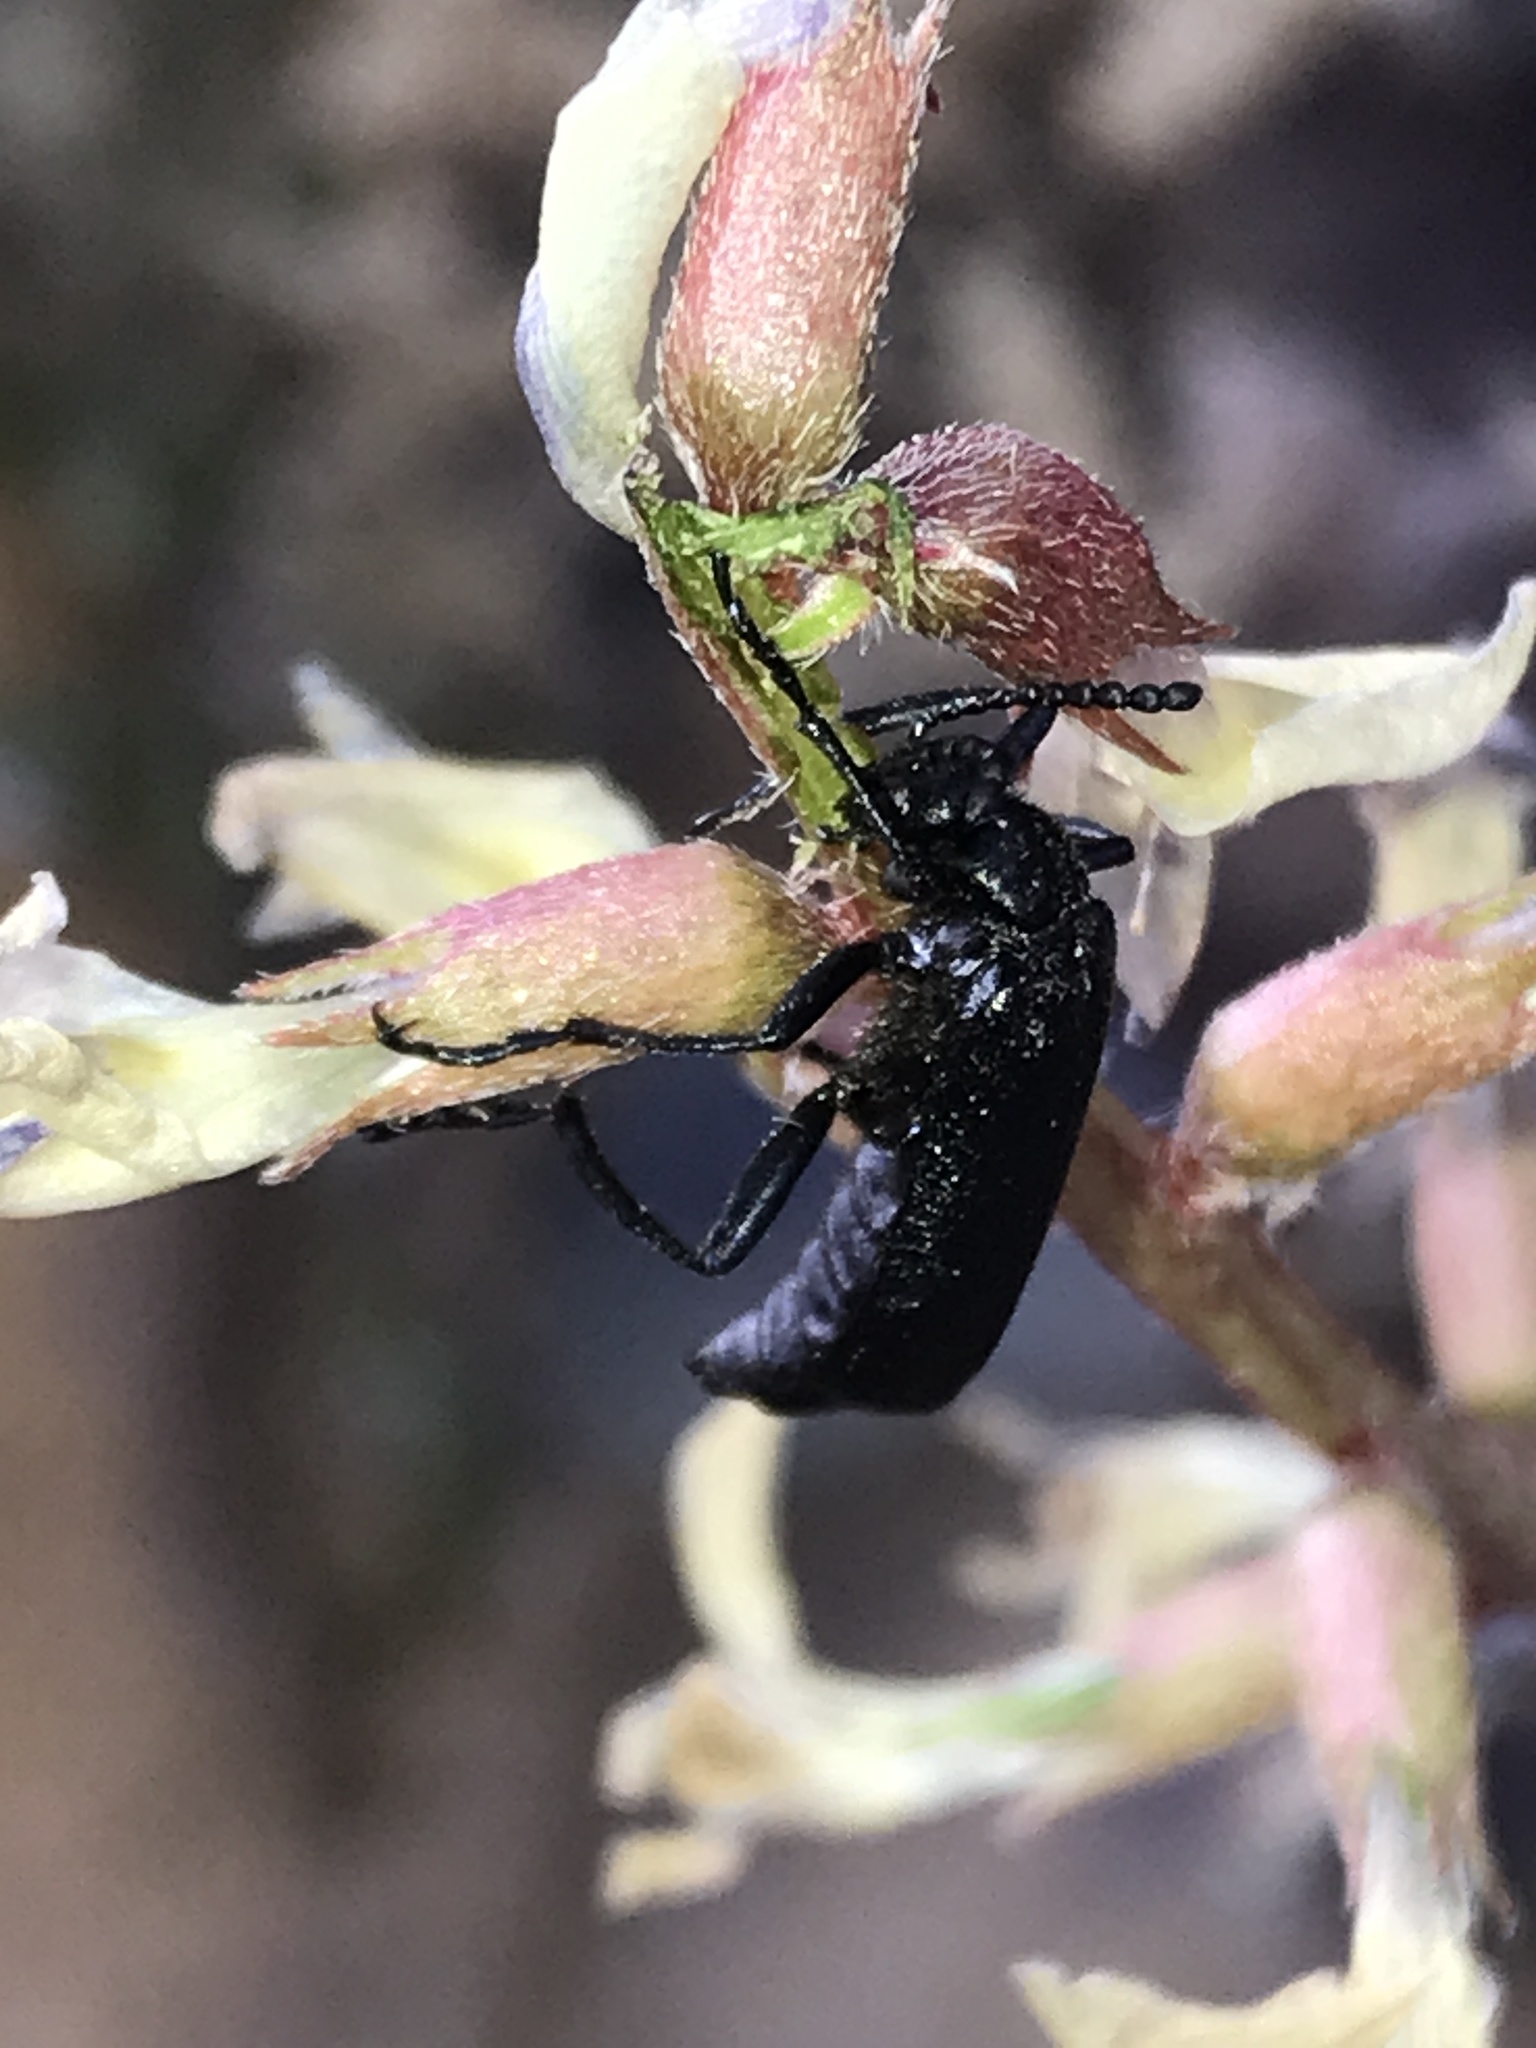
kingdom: Animalia
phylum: Arthropoda
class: Insecta
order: Coleoptera
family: Meloidae
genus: Lytta
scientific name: Lytta reticulata
